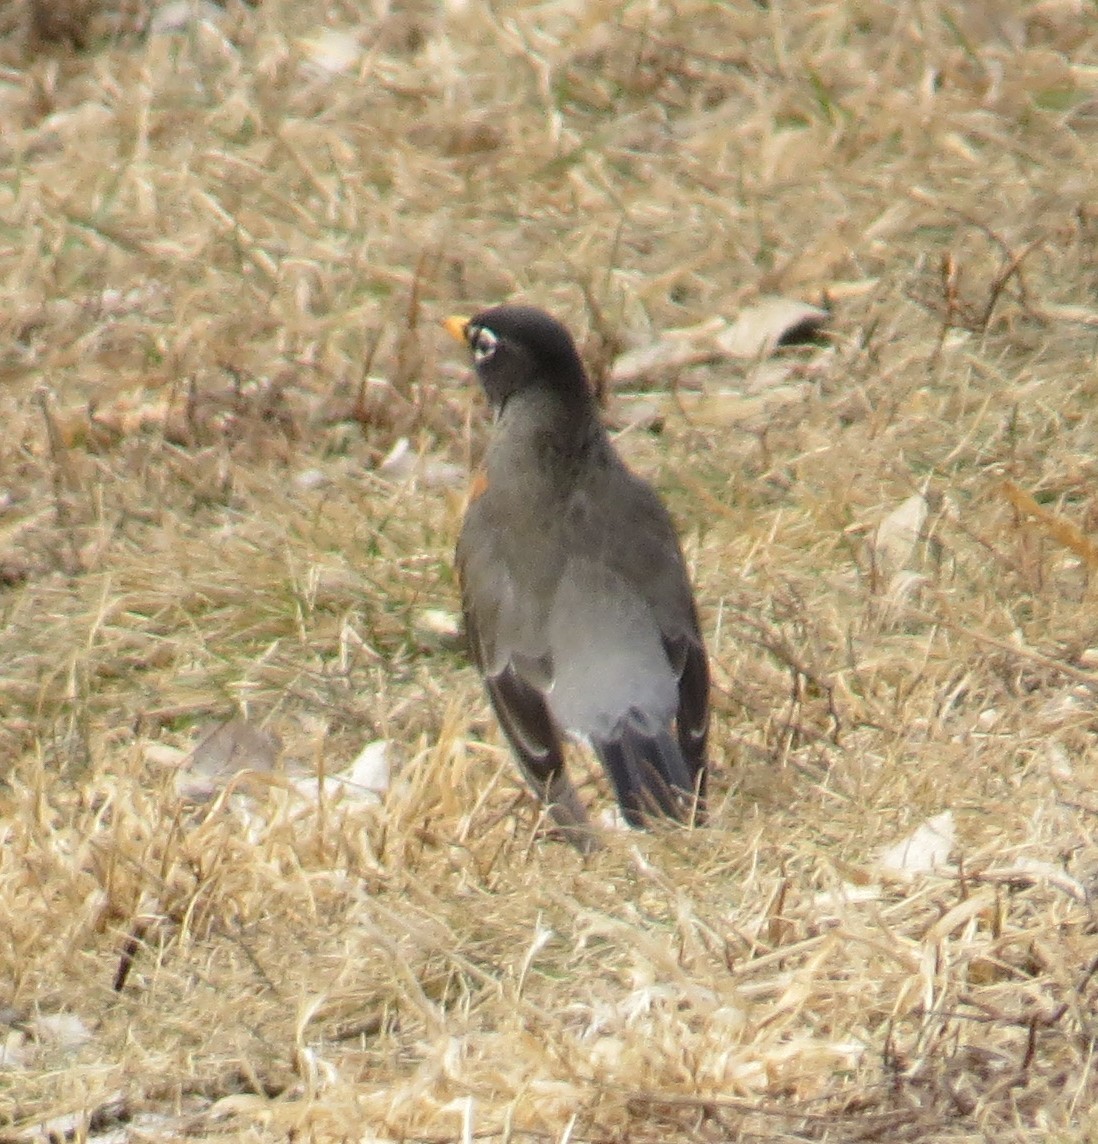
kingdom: Animalia
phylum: Chordata
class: Aves
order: Passeriformes
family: Turdidae
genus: Turdus
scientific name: Turdus migratorius
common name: American robin
